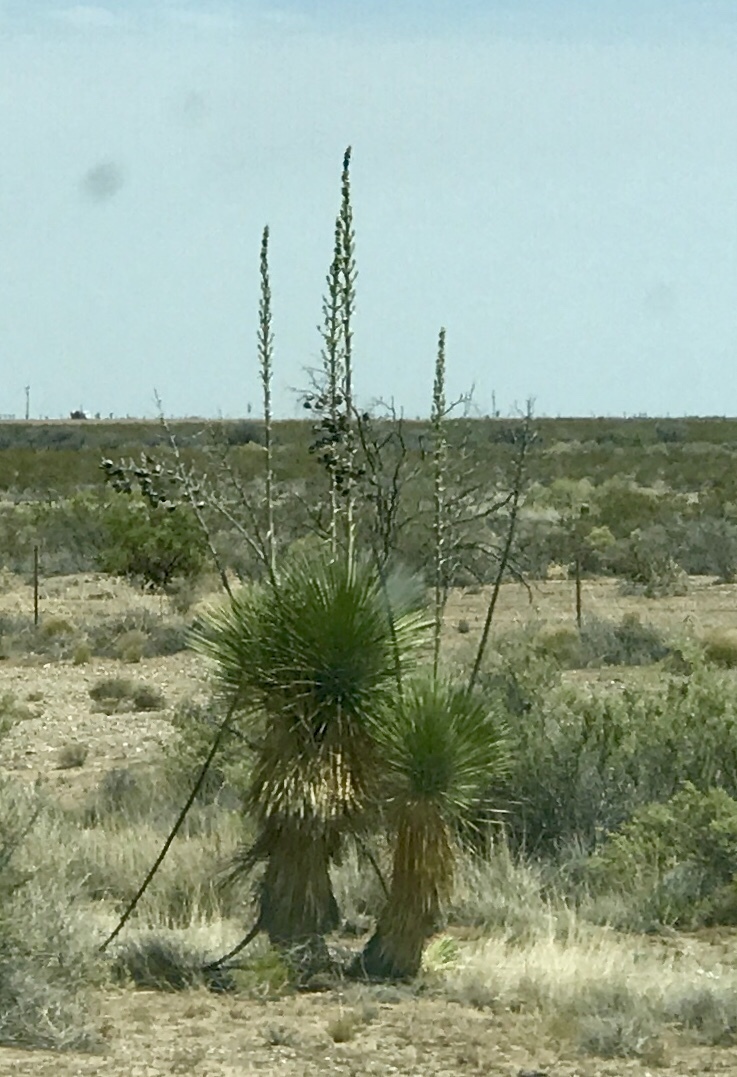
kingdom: Plantae
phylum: Tracheophyta
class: Liliopsida
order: Asparagales
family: Asparagaceae
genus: Yucca
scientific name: Yucca elata
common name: Palmella
